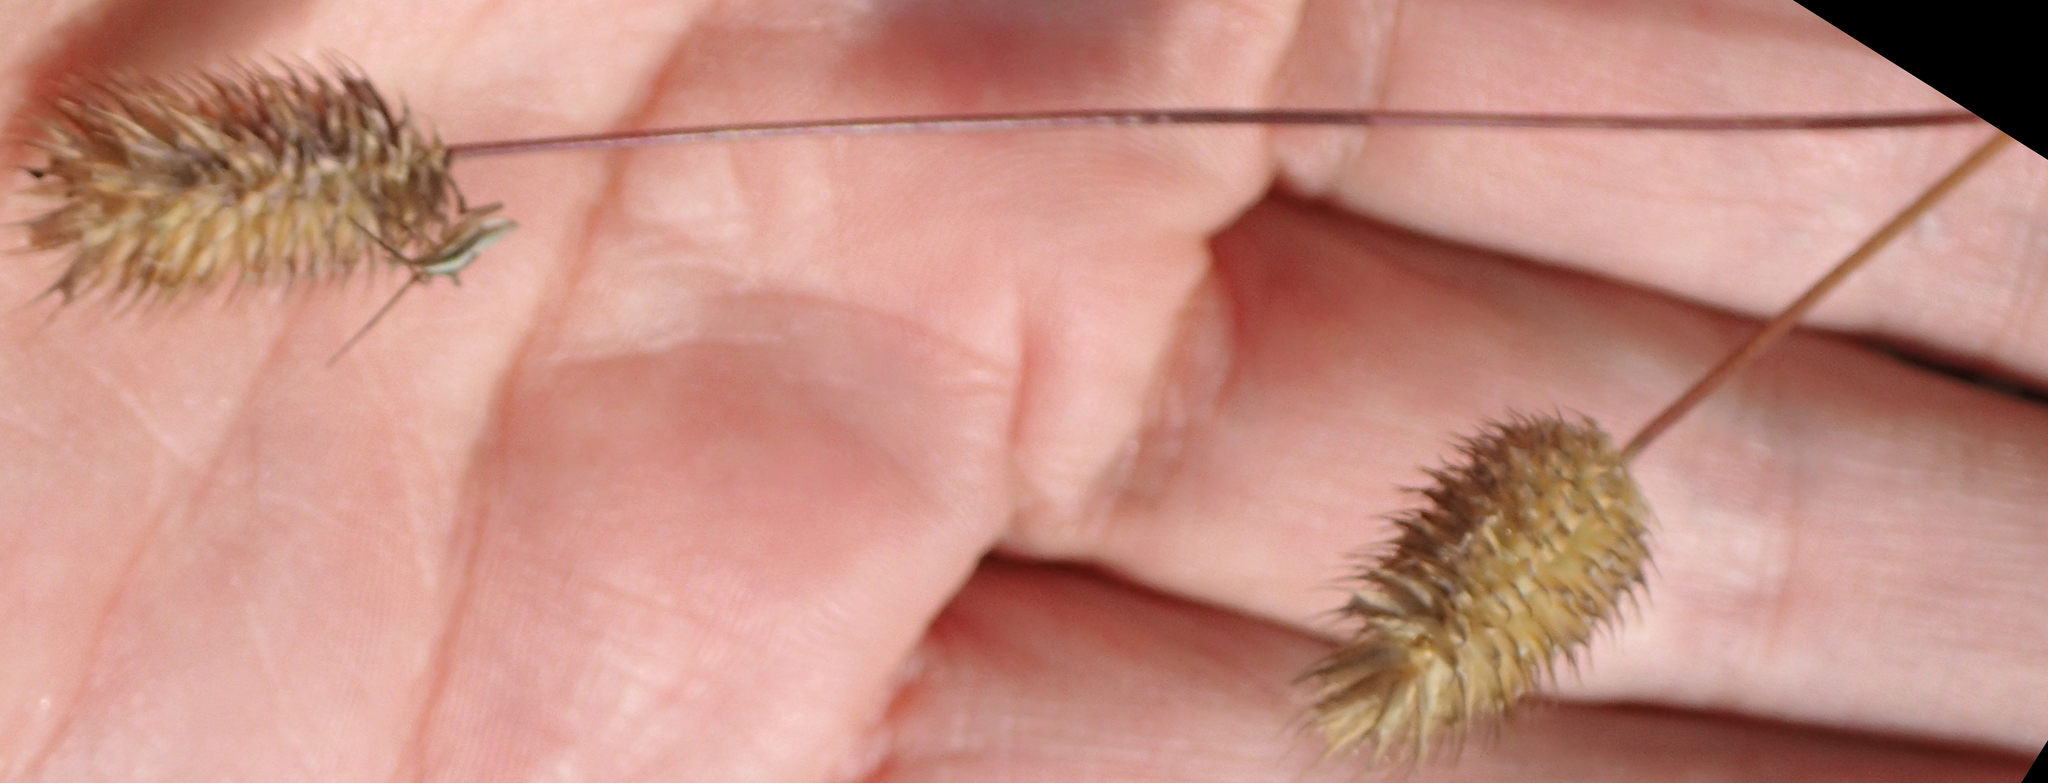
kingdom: Plantae
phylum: Tracheophyta
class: Liliopsida
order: Poales
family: Poaceae
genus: Phleum
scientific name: Phleum alpinum
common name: Alpine cat's-tail
